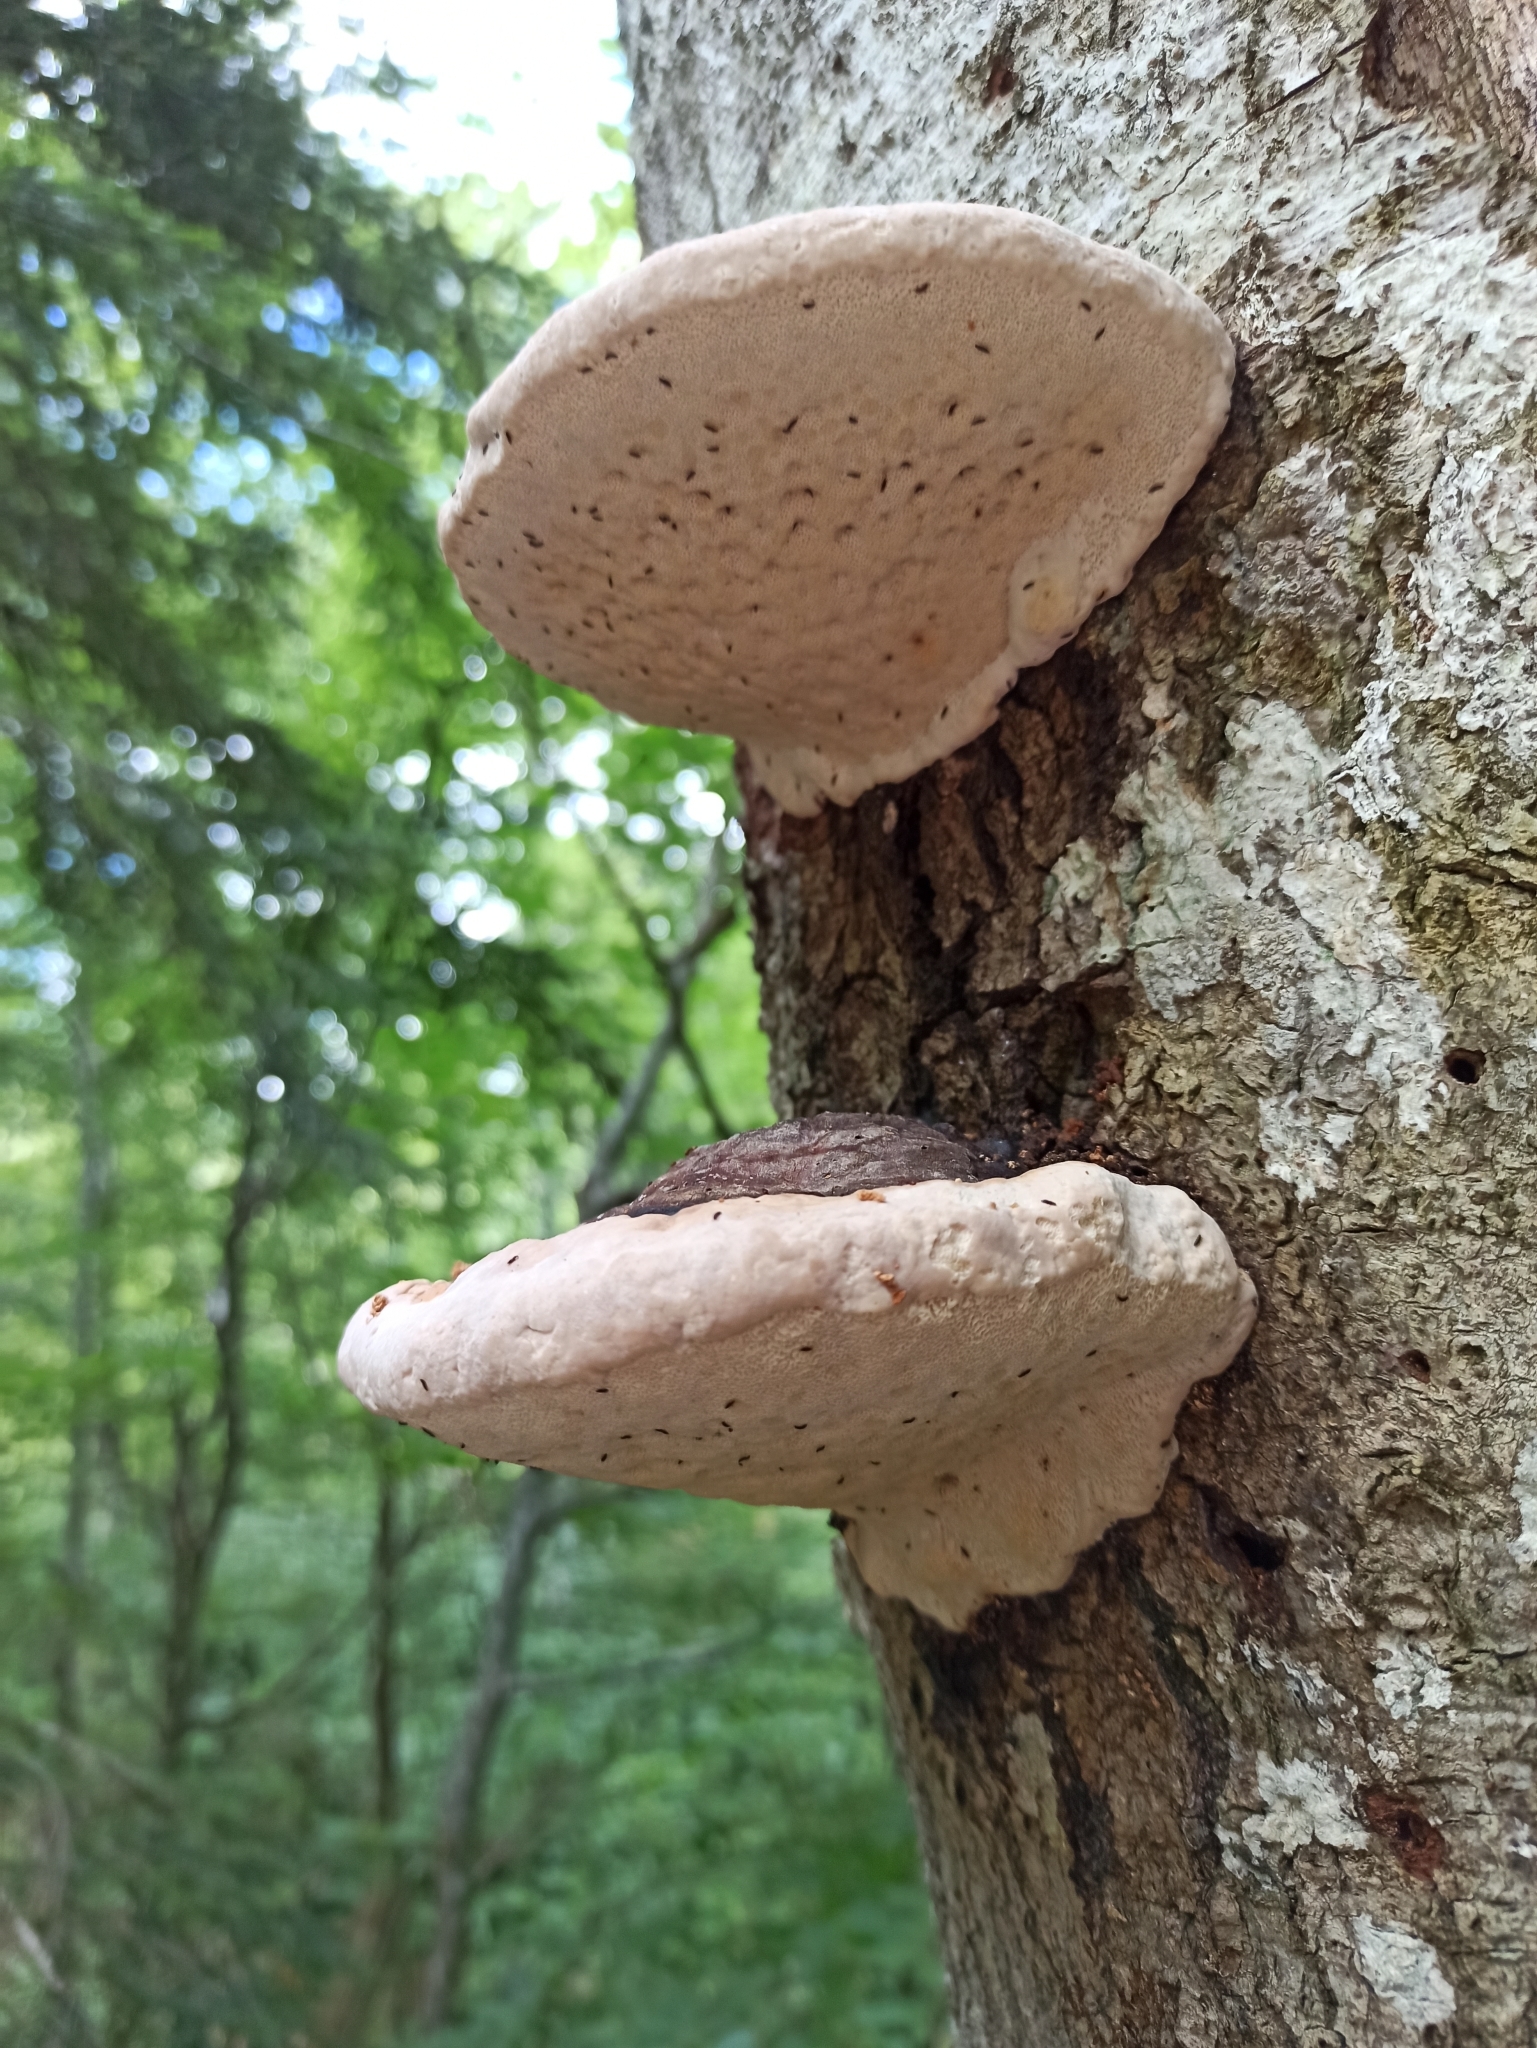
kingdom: Fungi
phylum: Basidiomycota
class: Agaricomycetes
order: Polyporales
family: Fomitopsidaceae
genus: Fomitopsis
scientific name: Fomitopsis pinicola
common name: Red-belted bracket
